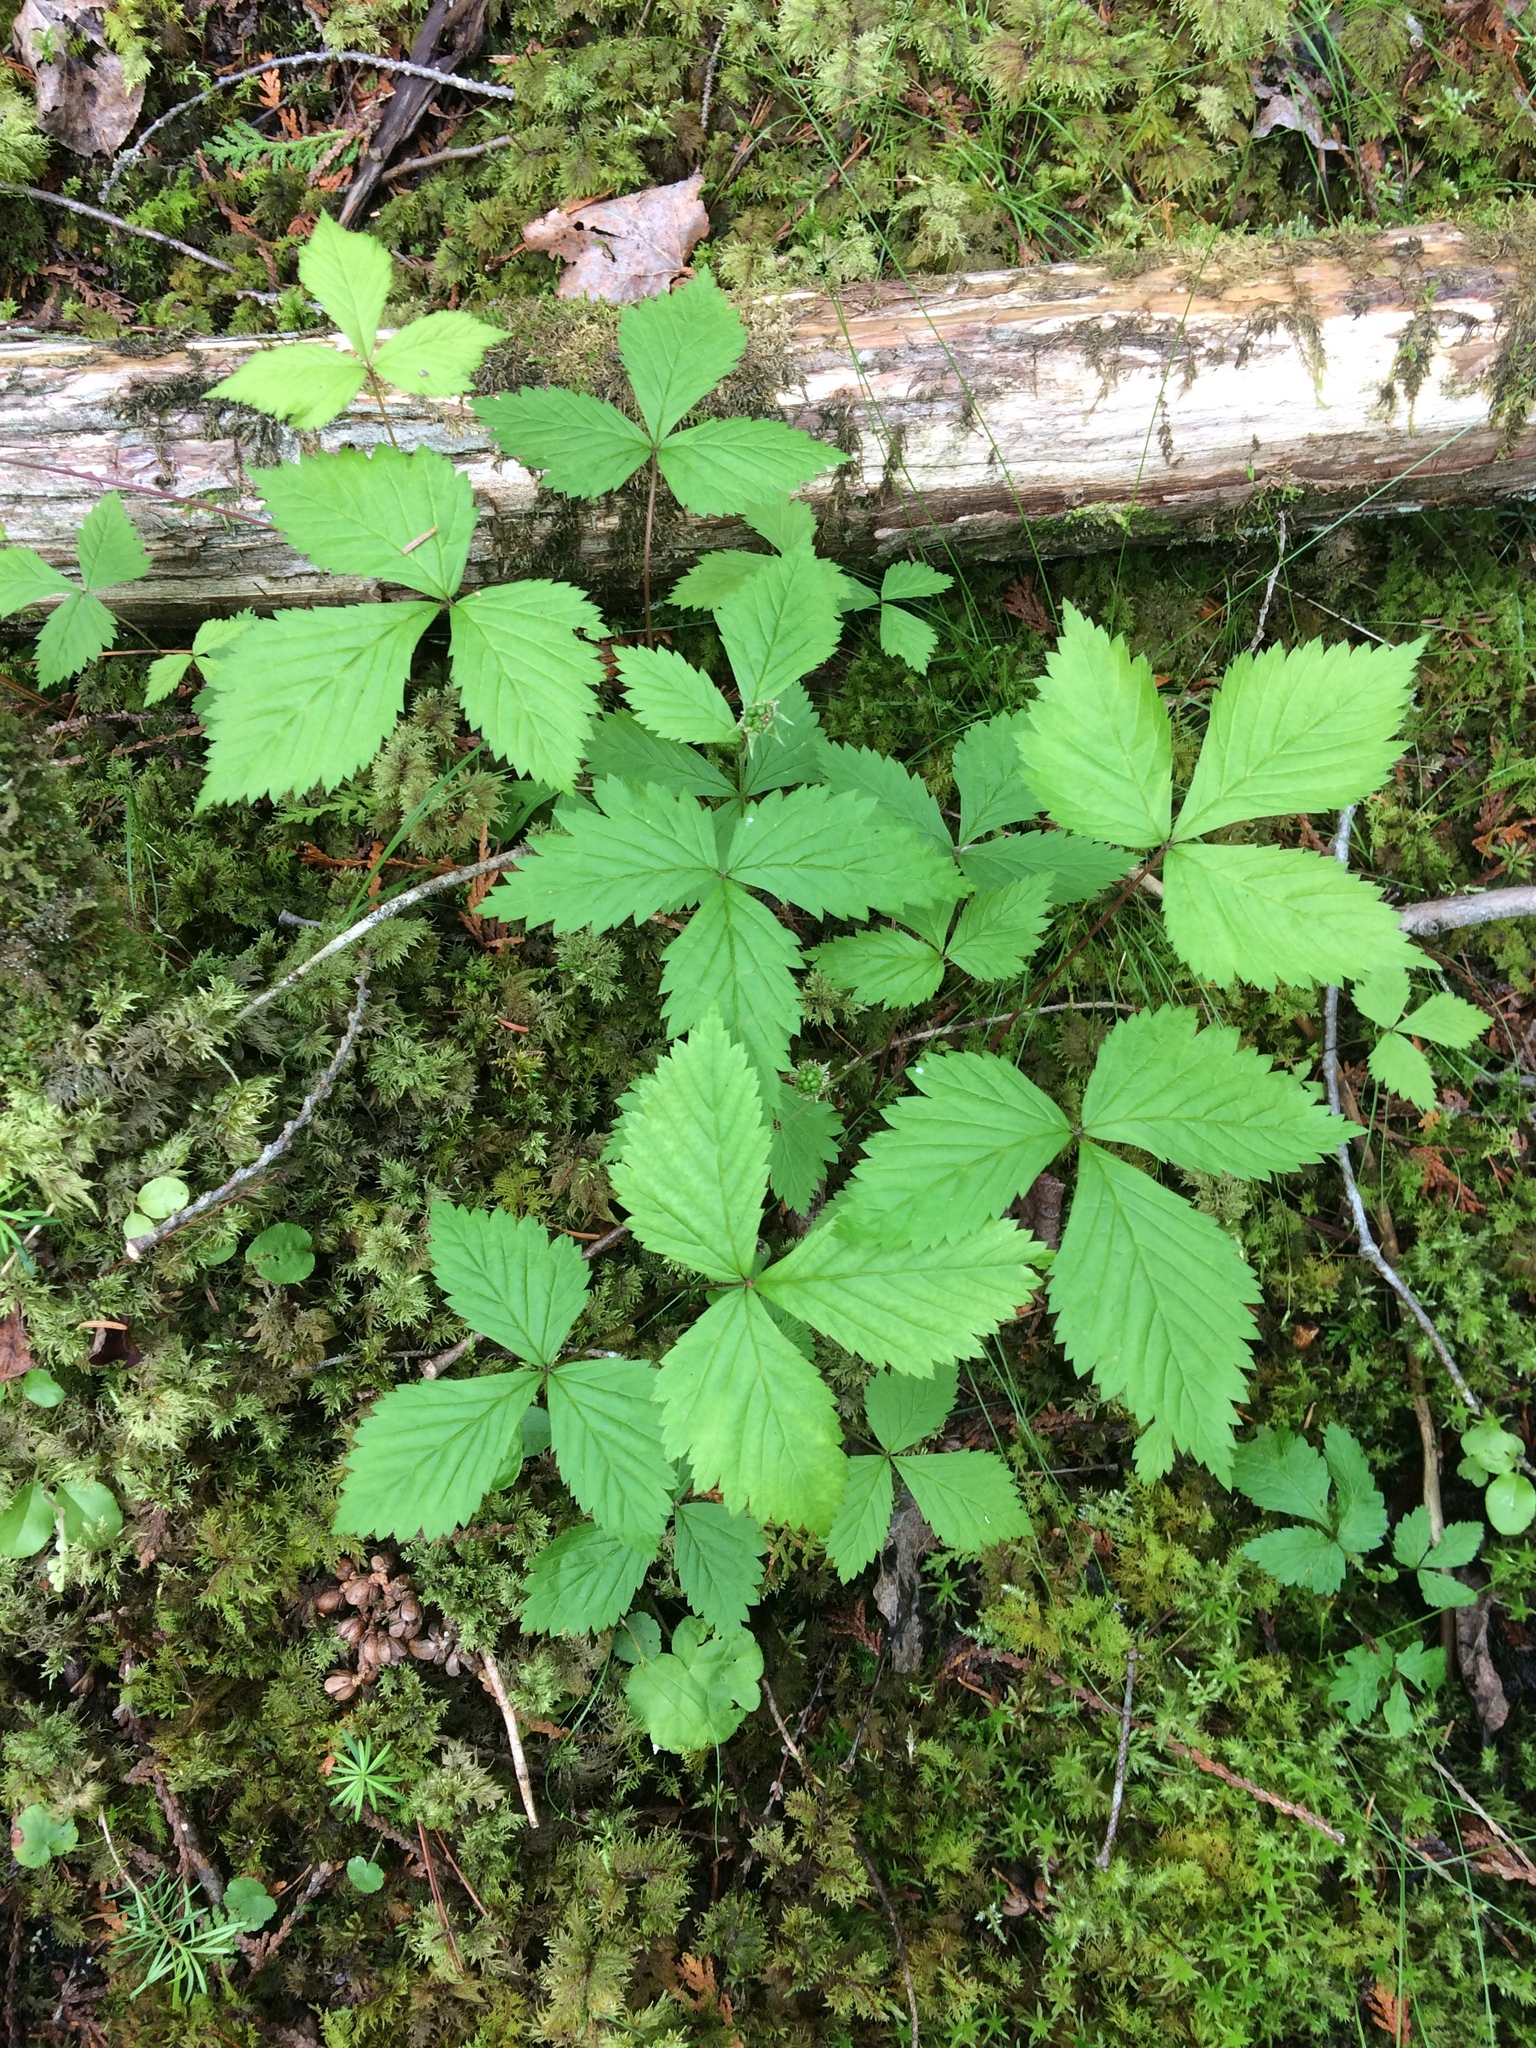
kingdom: Plantae
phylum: Tracheophyta
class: Magnoliopsida
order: Rosales
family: Rosaceae
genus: Rubus
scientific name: Rubus pubescens
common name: Dwarf raspberry
